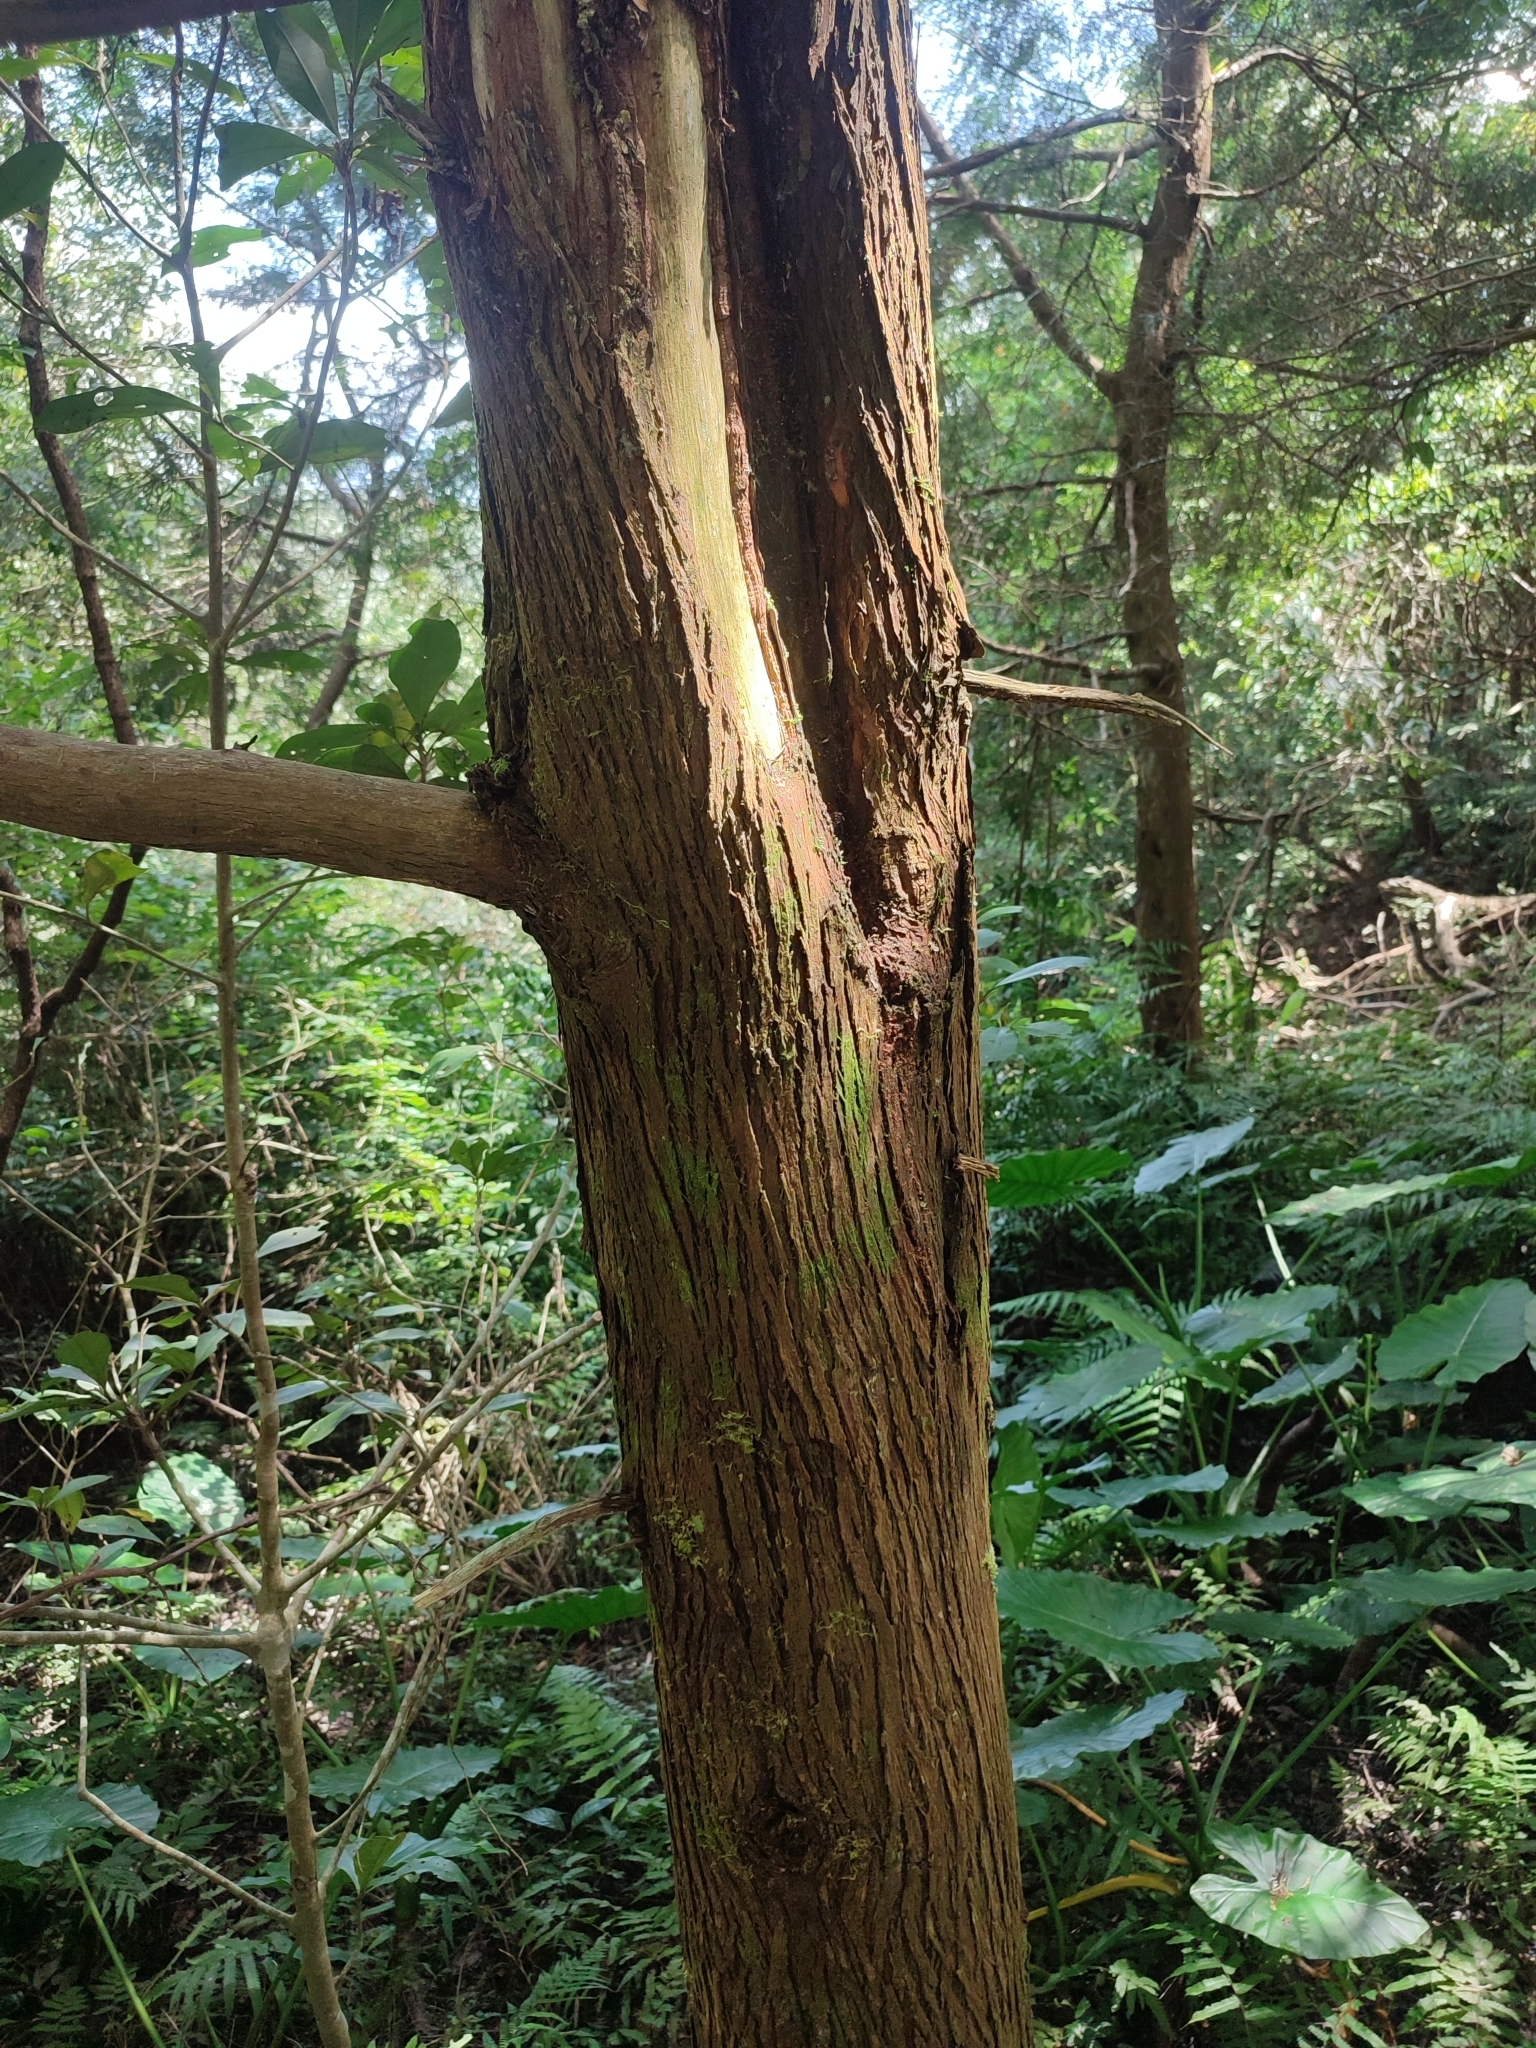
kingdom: Plantae
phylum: Tracheophyta
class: Pinopsida
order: Pinales
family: Cupressaceae
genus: Calocedrus
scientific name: Calocedrus formosana
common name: Taiwan incense-cedar
